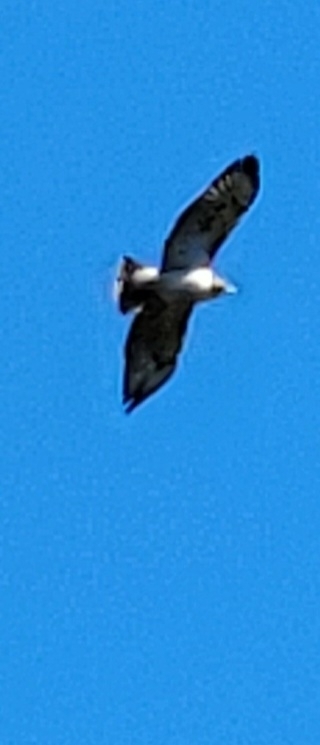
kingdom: Animalia
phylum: Chordata
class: Aves
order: Accipitriformes
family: Accipitridae
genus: Buteo
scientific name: Buteo jamaicensis
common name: Red-tailed hawk
